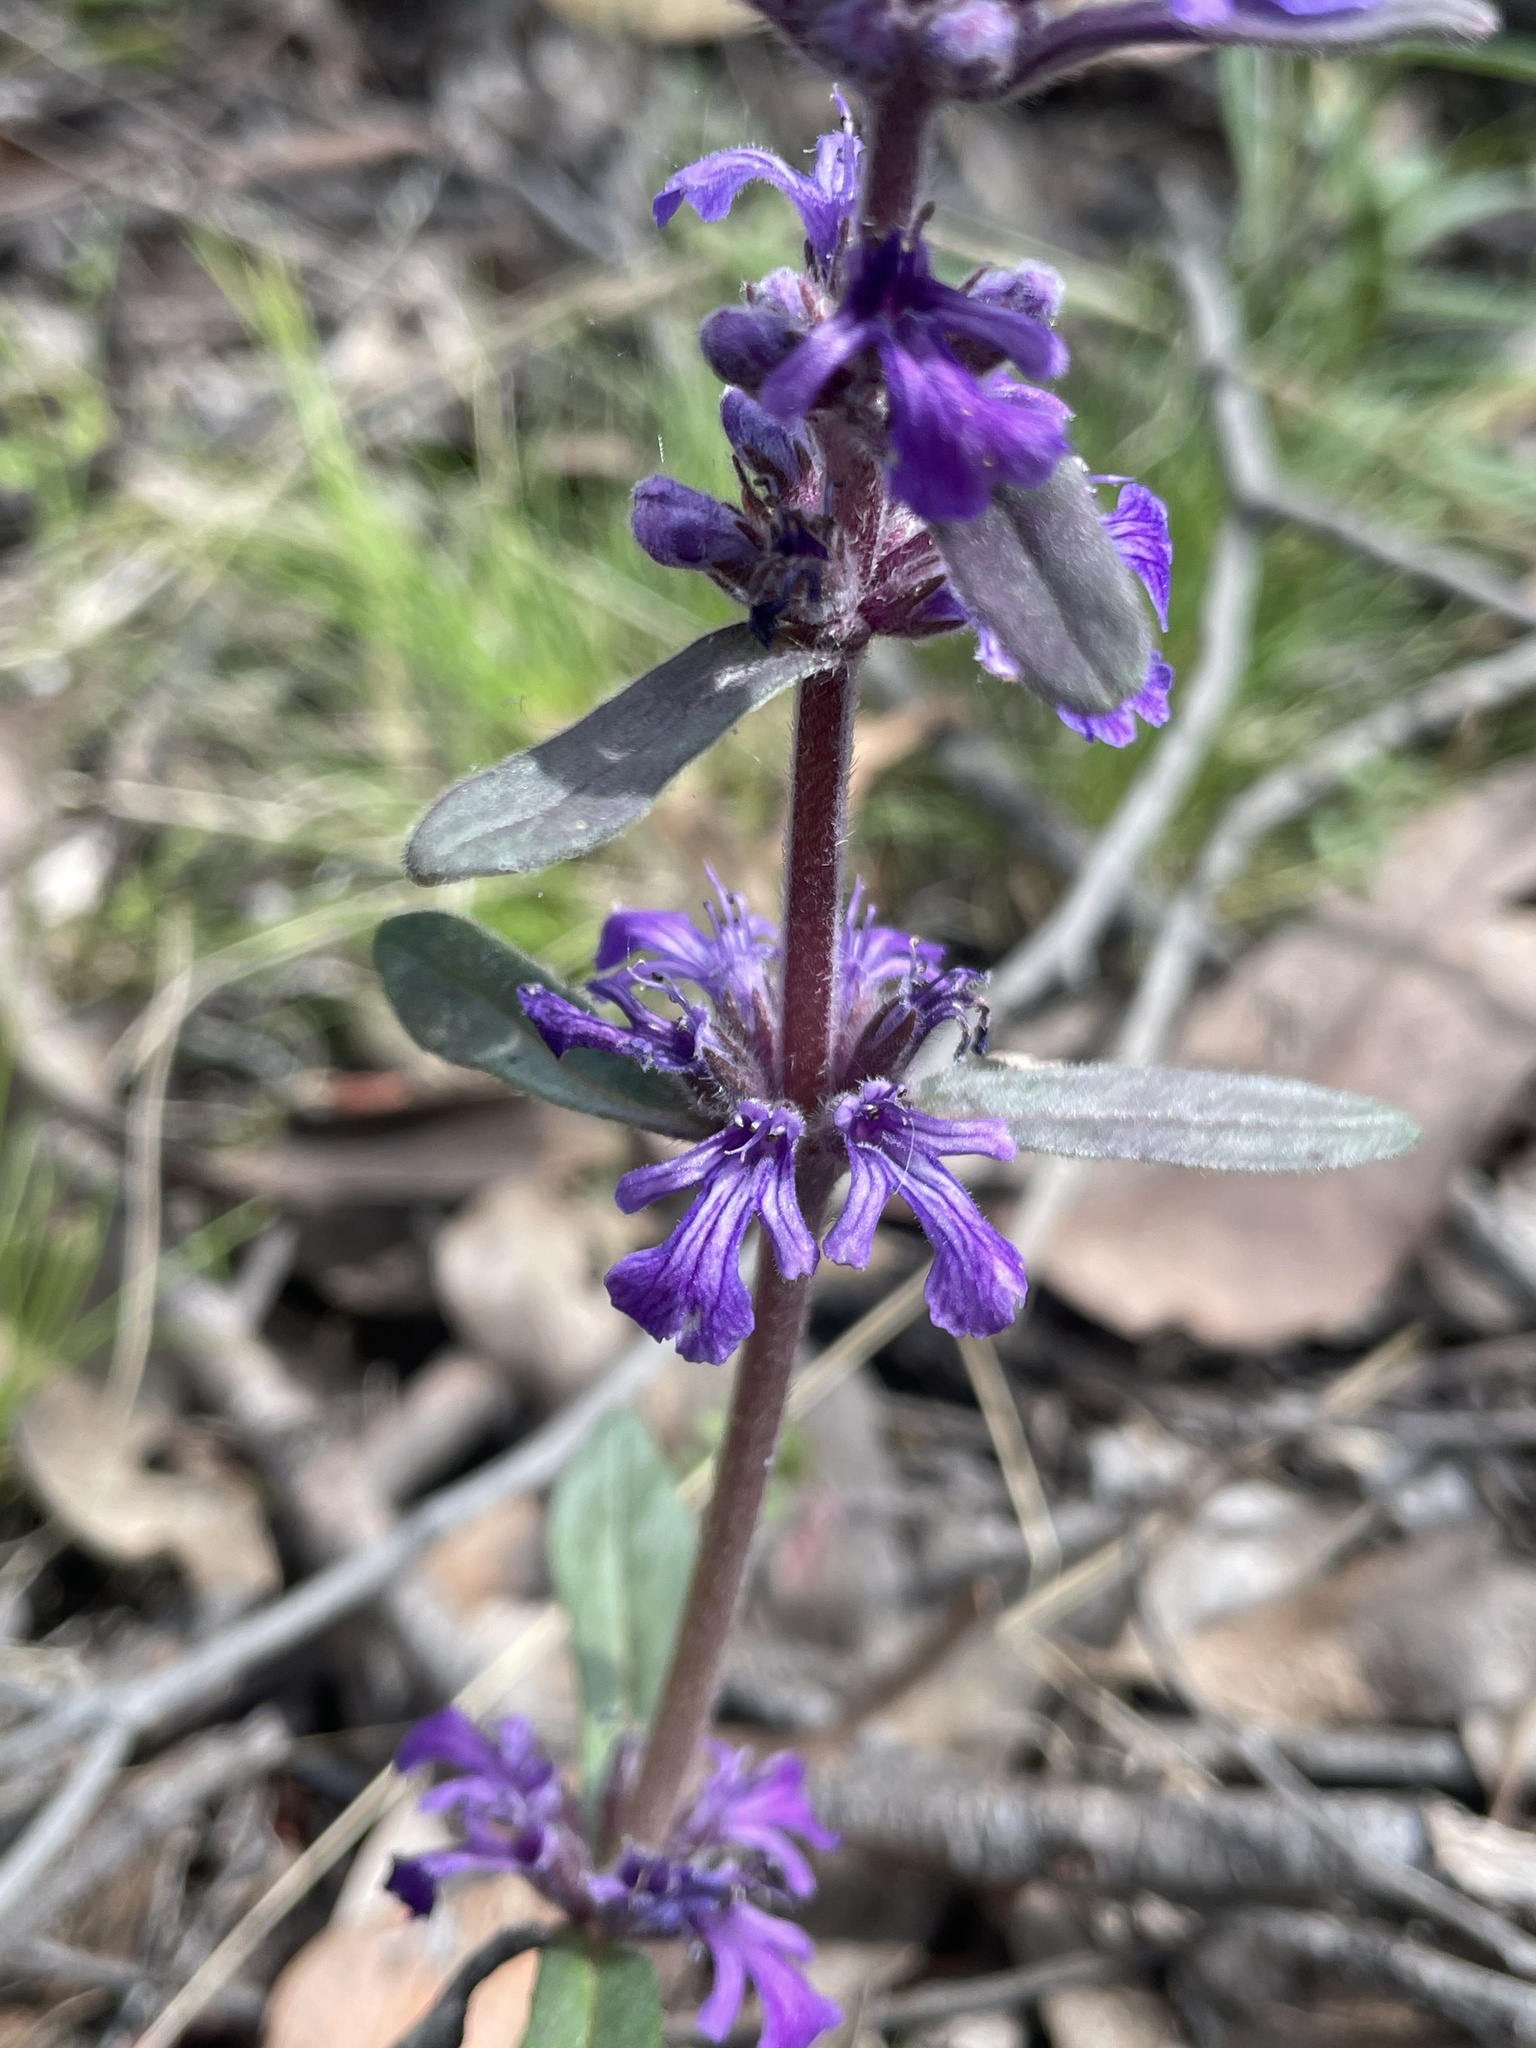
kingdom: Plantae
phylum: Tracheophyta
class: Magnoliopsida
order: Lamiales
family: Lamiaceae
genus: Ajuga
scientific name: Ajuga australis
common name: Australian bugle
